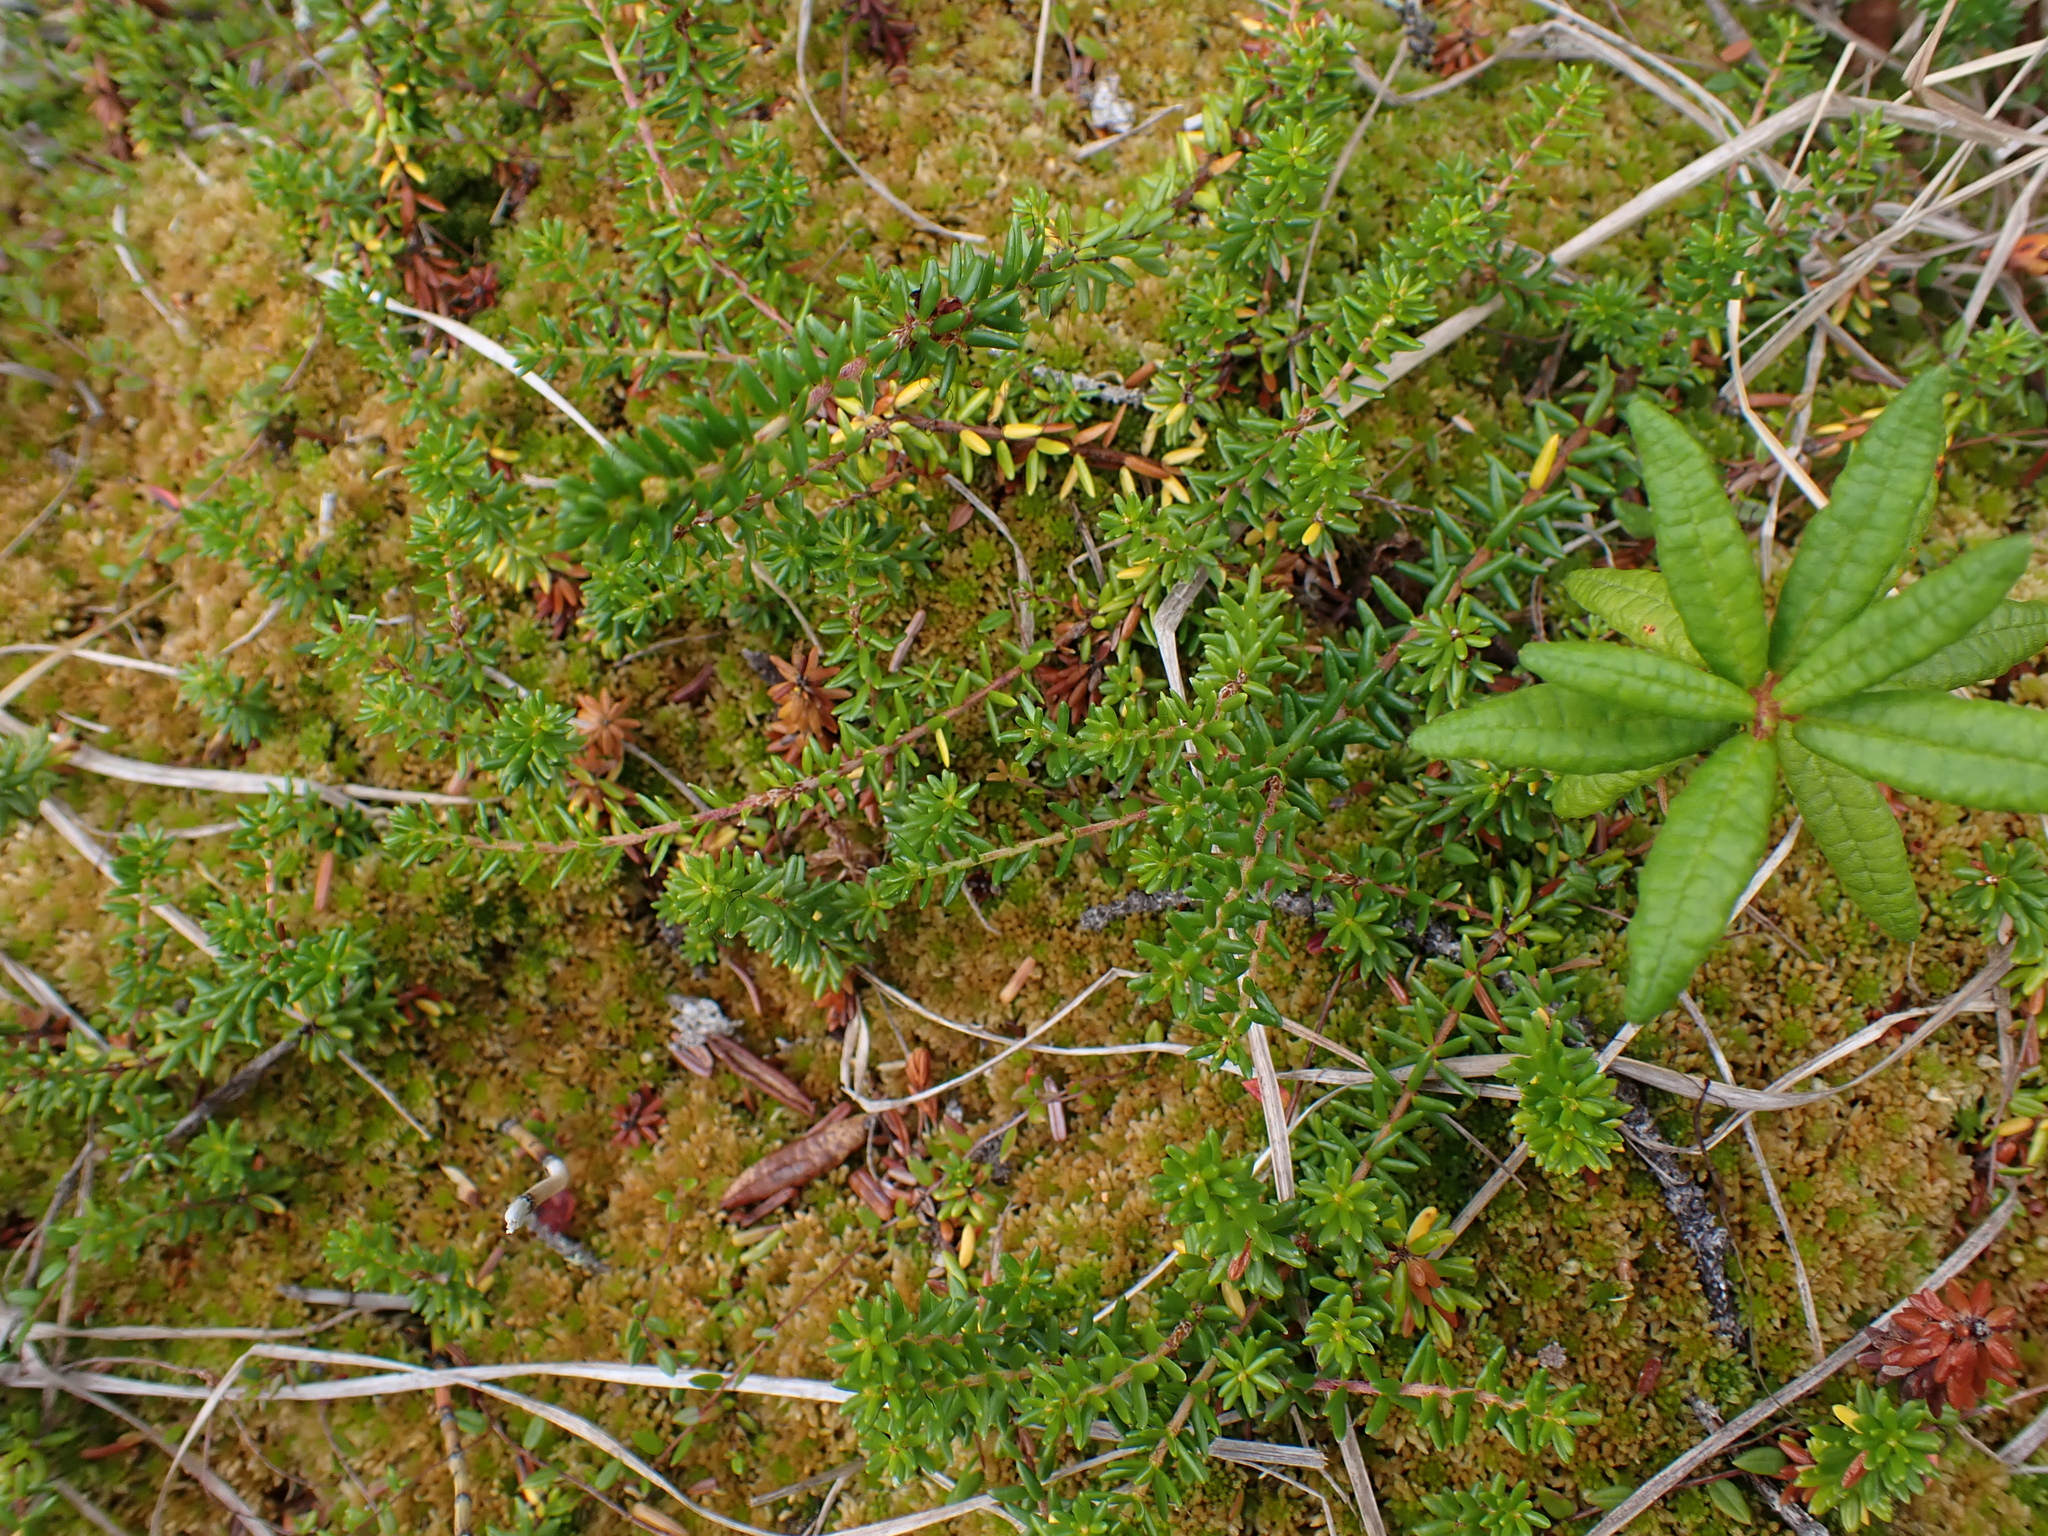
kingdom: Plantae
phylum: Tracheophyta
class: Magnoliopsida
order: Ericales
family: Ericaceae
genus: Empetrum
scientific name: Empetrum nigrum
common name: Black crowberry
